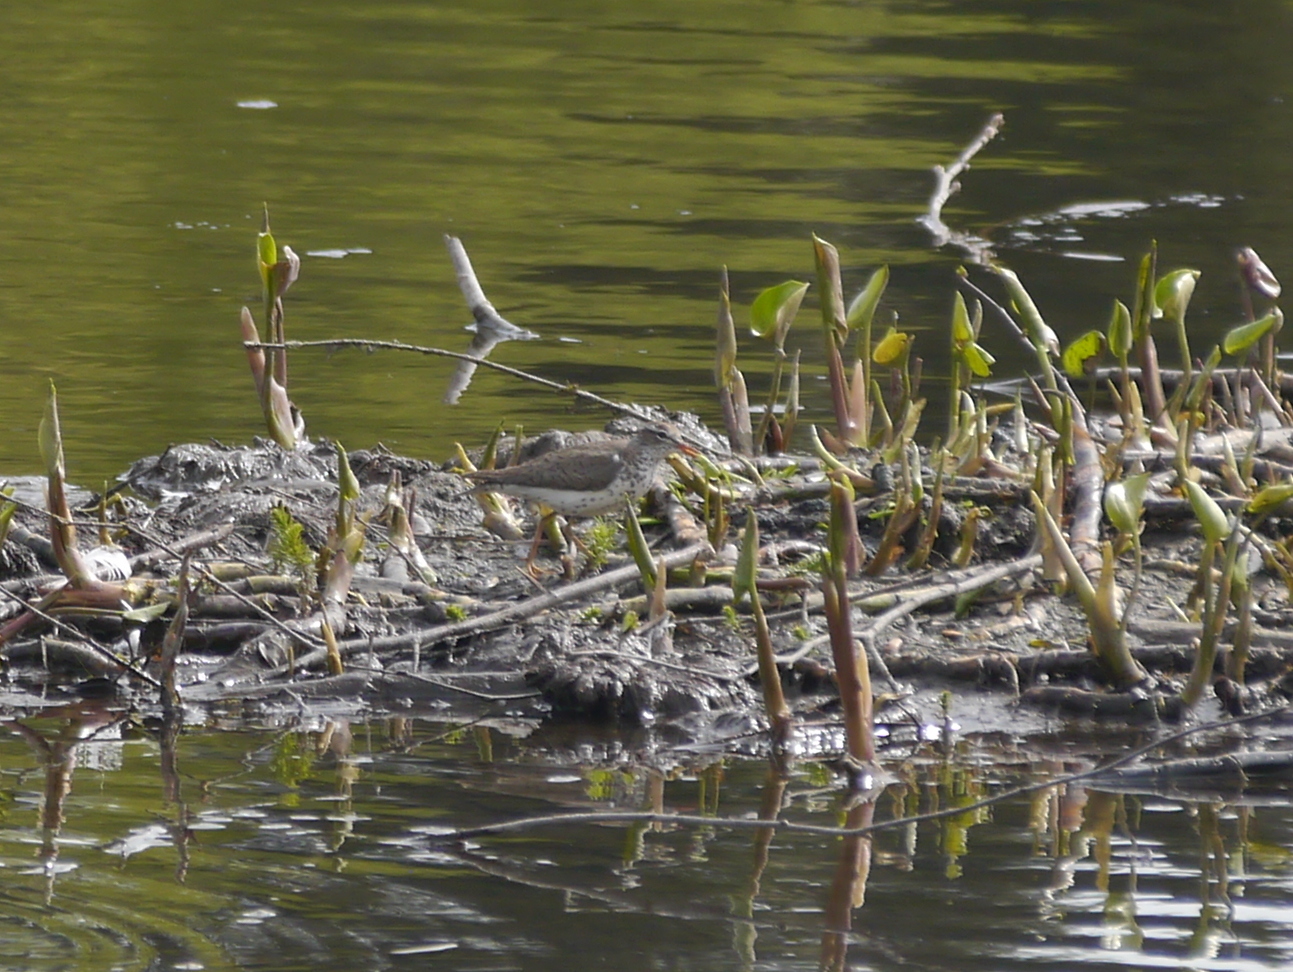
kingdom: Animalia
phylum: Chordata
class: Aves
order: Charadriiformes
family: Scolopacidae
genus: Actitis
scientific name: Actitis macularius
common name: Spotted sandpiper
